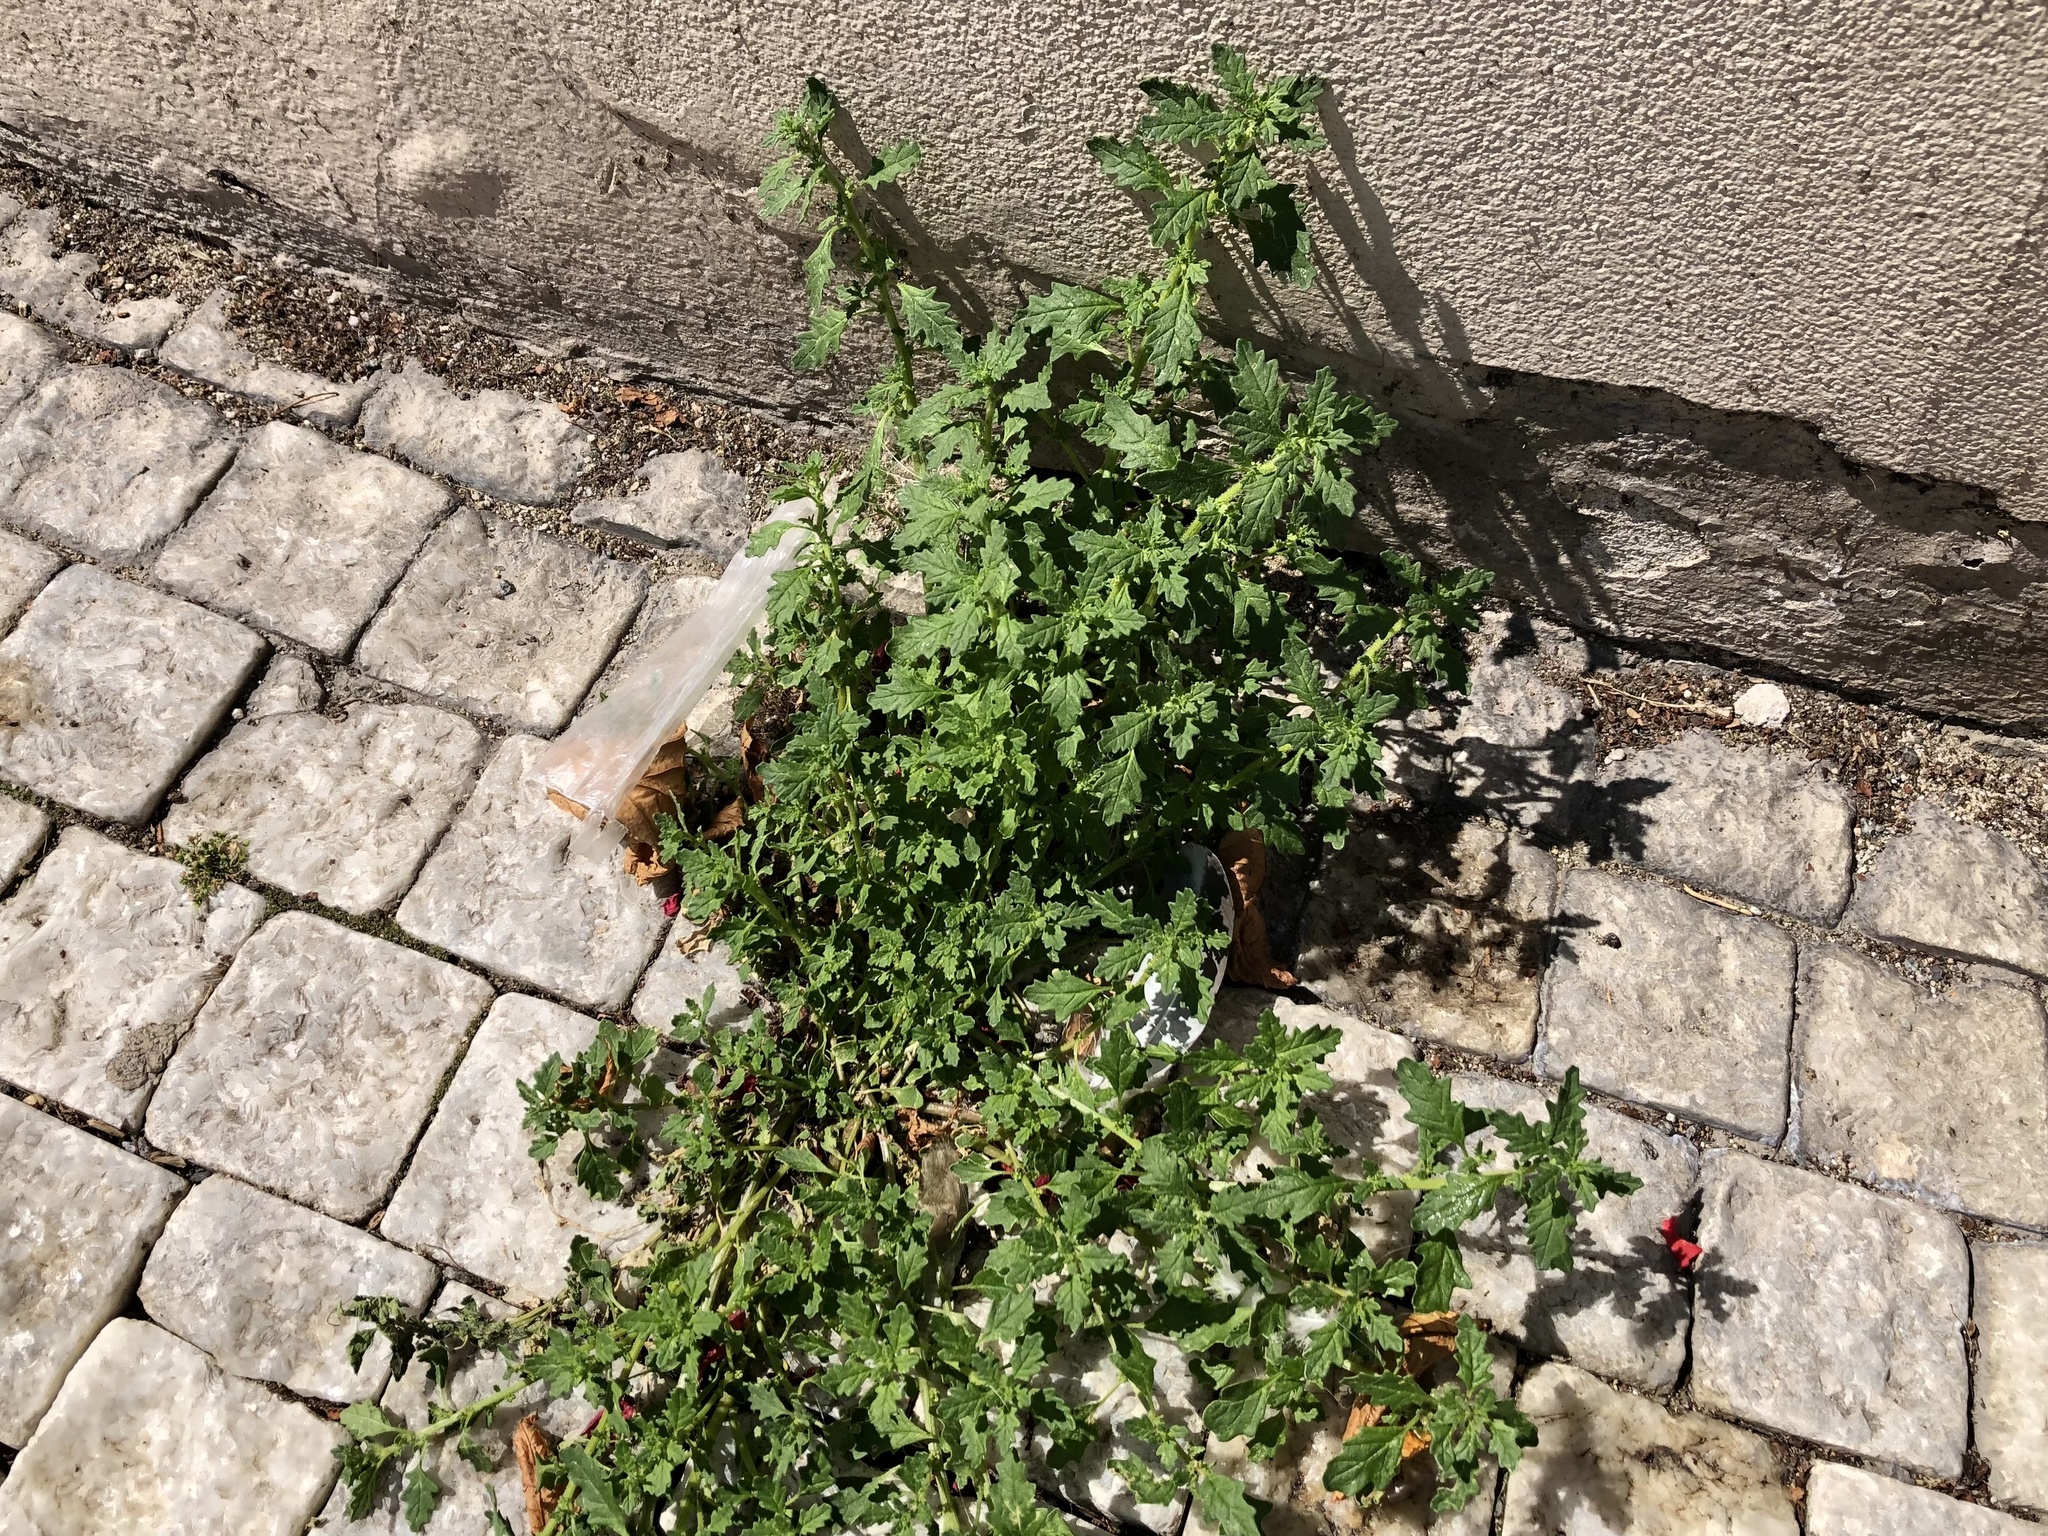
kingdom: Plantae
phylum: Tracheophyta
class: Magnoliopsida
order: Caryophyllales
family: Amaranthaceae
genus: Dysphania
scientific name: Dysphania pumilio
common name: Clammy goosefoot
